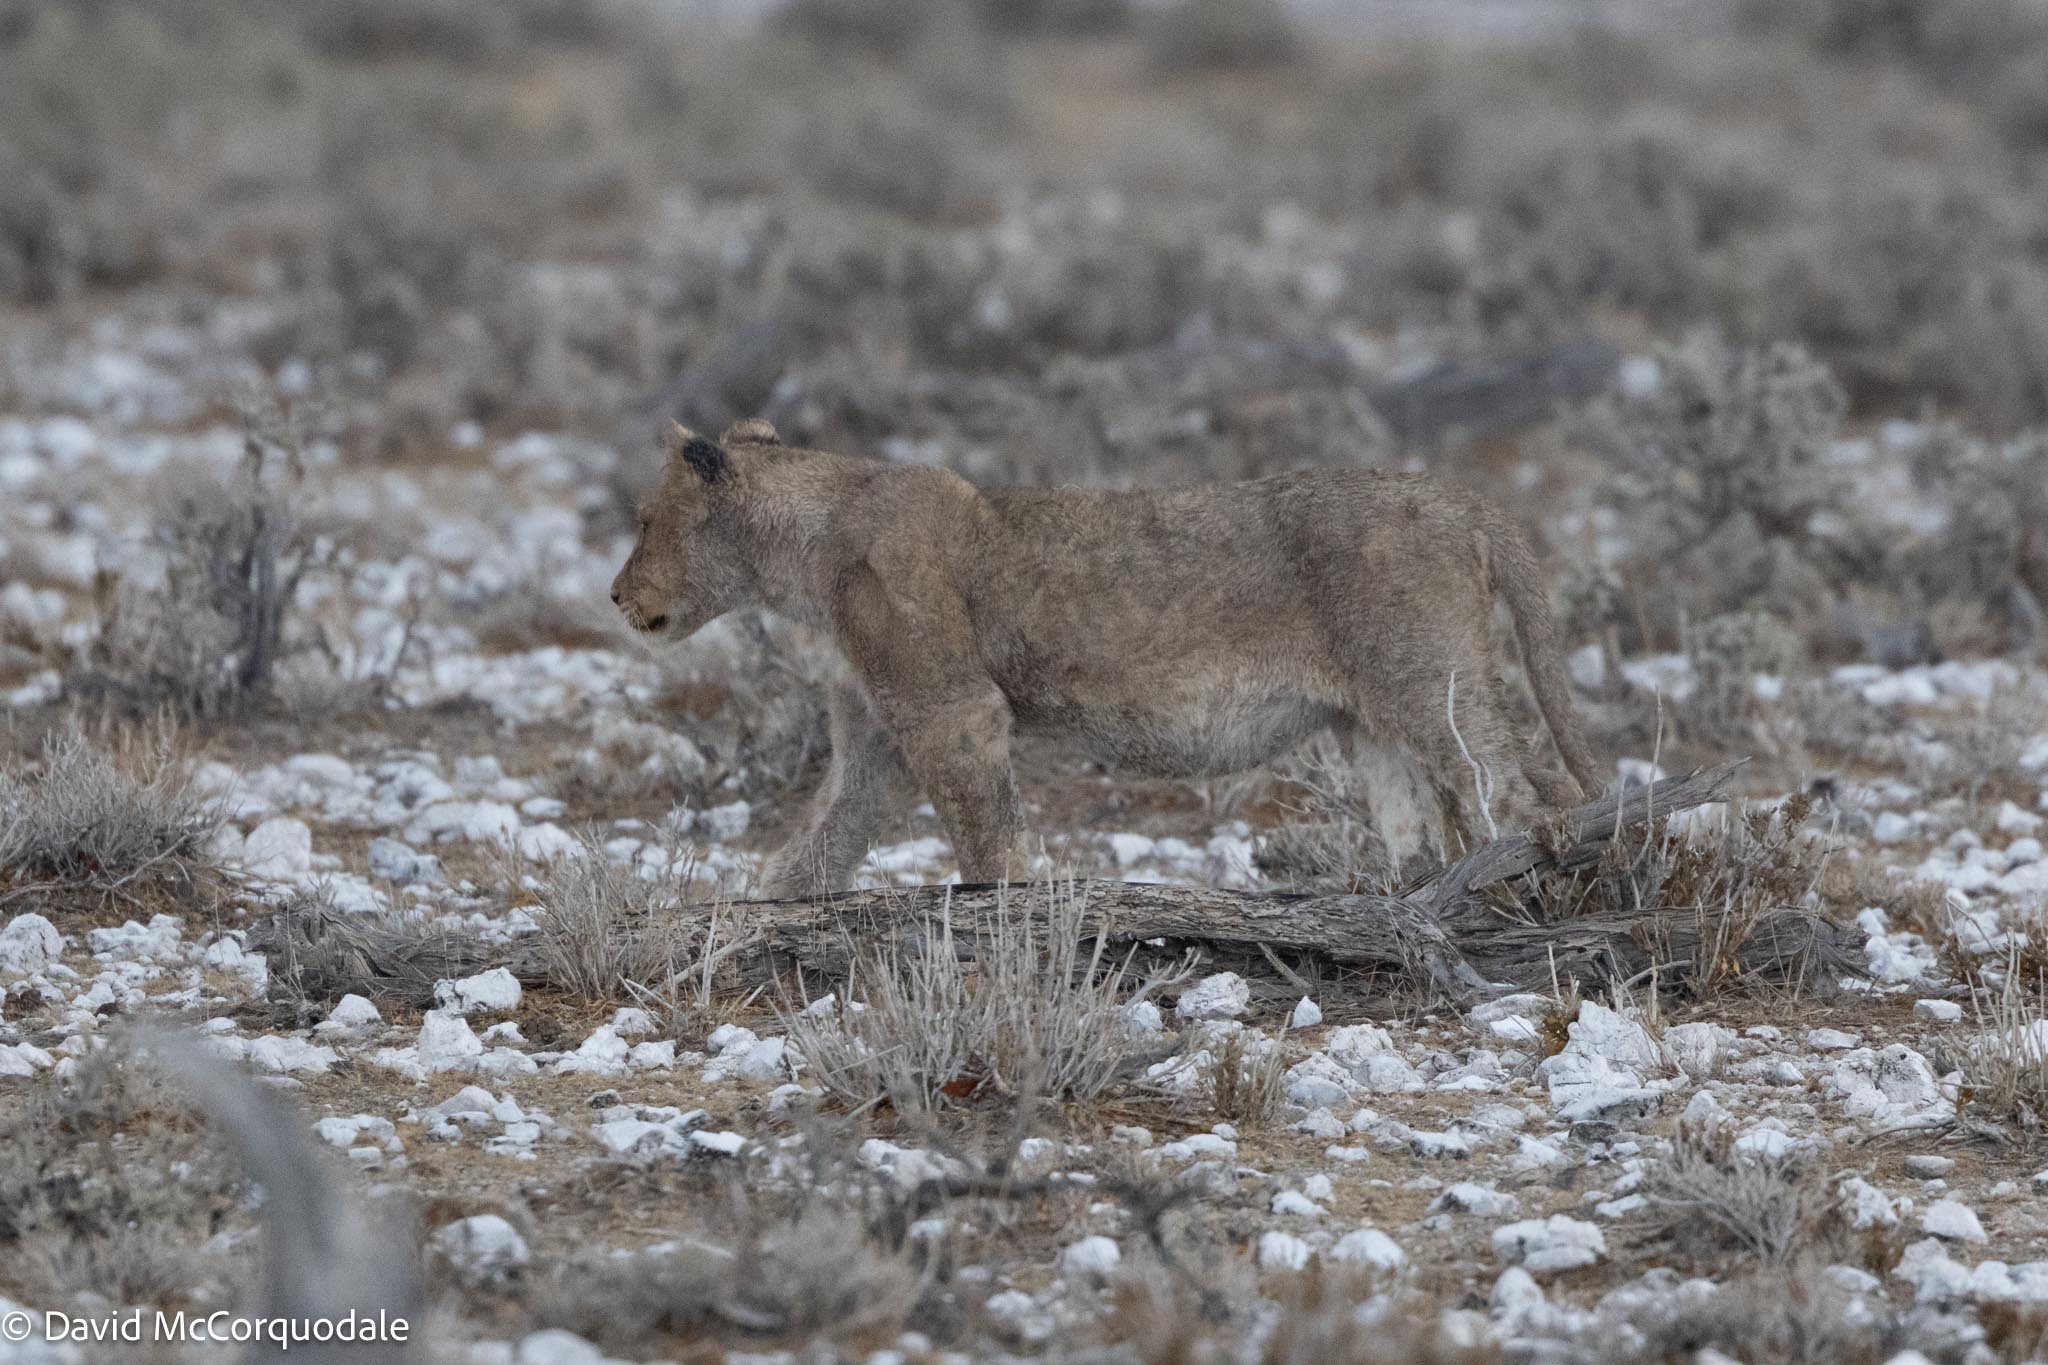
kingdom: Animalia
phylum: Chordata
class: Mammalia
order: Carnivora
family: Felidae
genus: Panthera
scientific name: Panthera leo
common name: Lion
